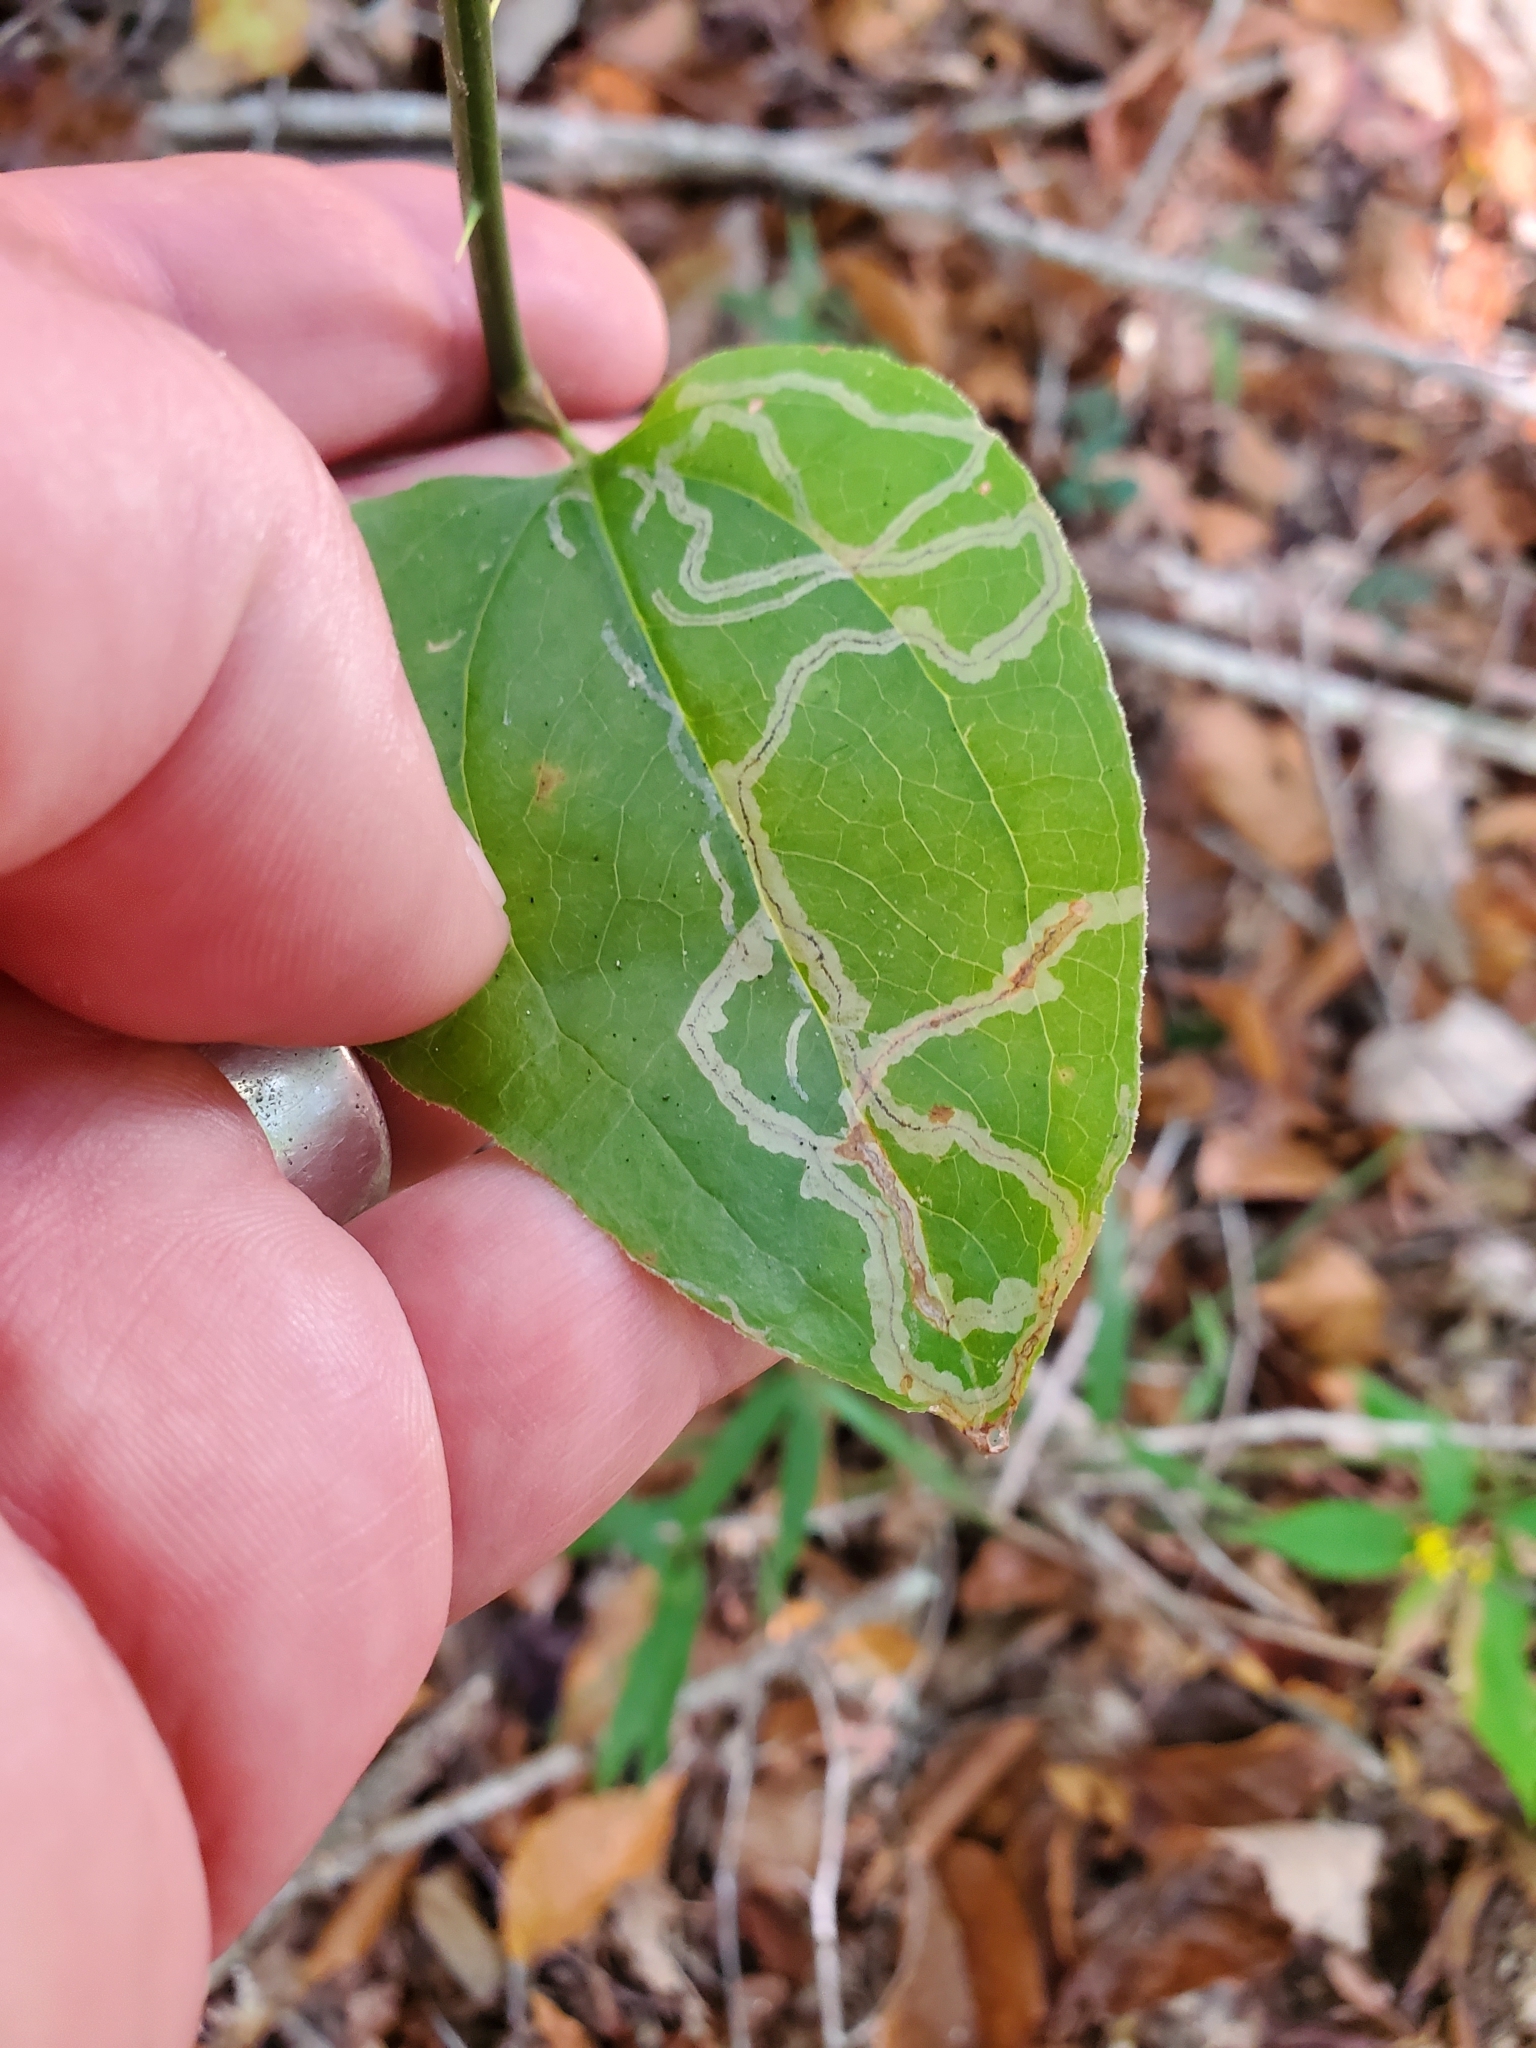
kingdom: Animalia
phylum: Arthropoda
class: Insecta
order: Lepidoptera
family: Gracillariidae
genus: Marmara
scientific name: Marmara smilacisella
